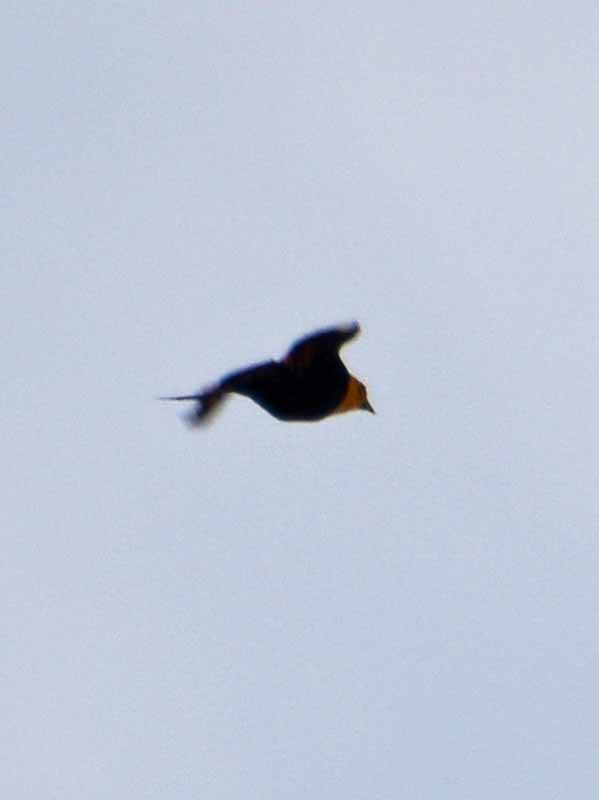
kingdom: Animalia
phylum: Chordata
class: Aves
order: Passeriformes
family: Icteridae
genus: Xanthocephalus
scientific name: Xanthocephalus xanthocephalus
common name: Yellow-headed blackbird
